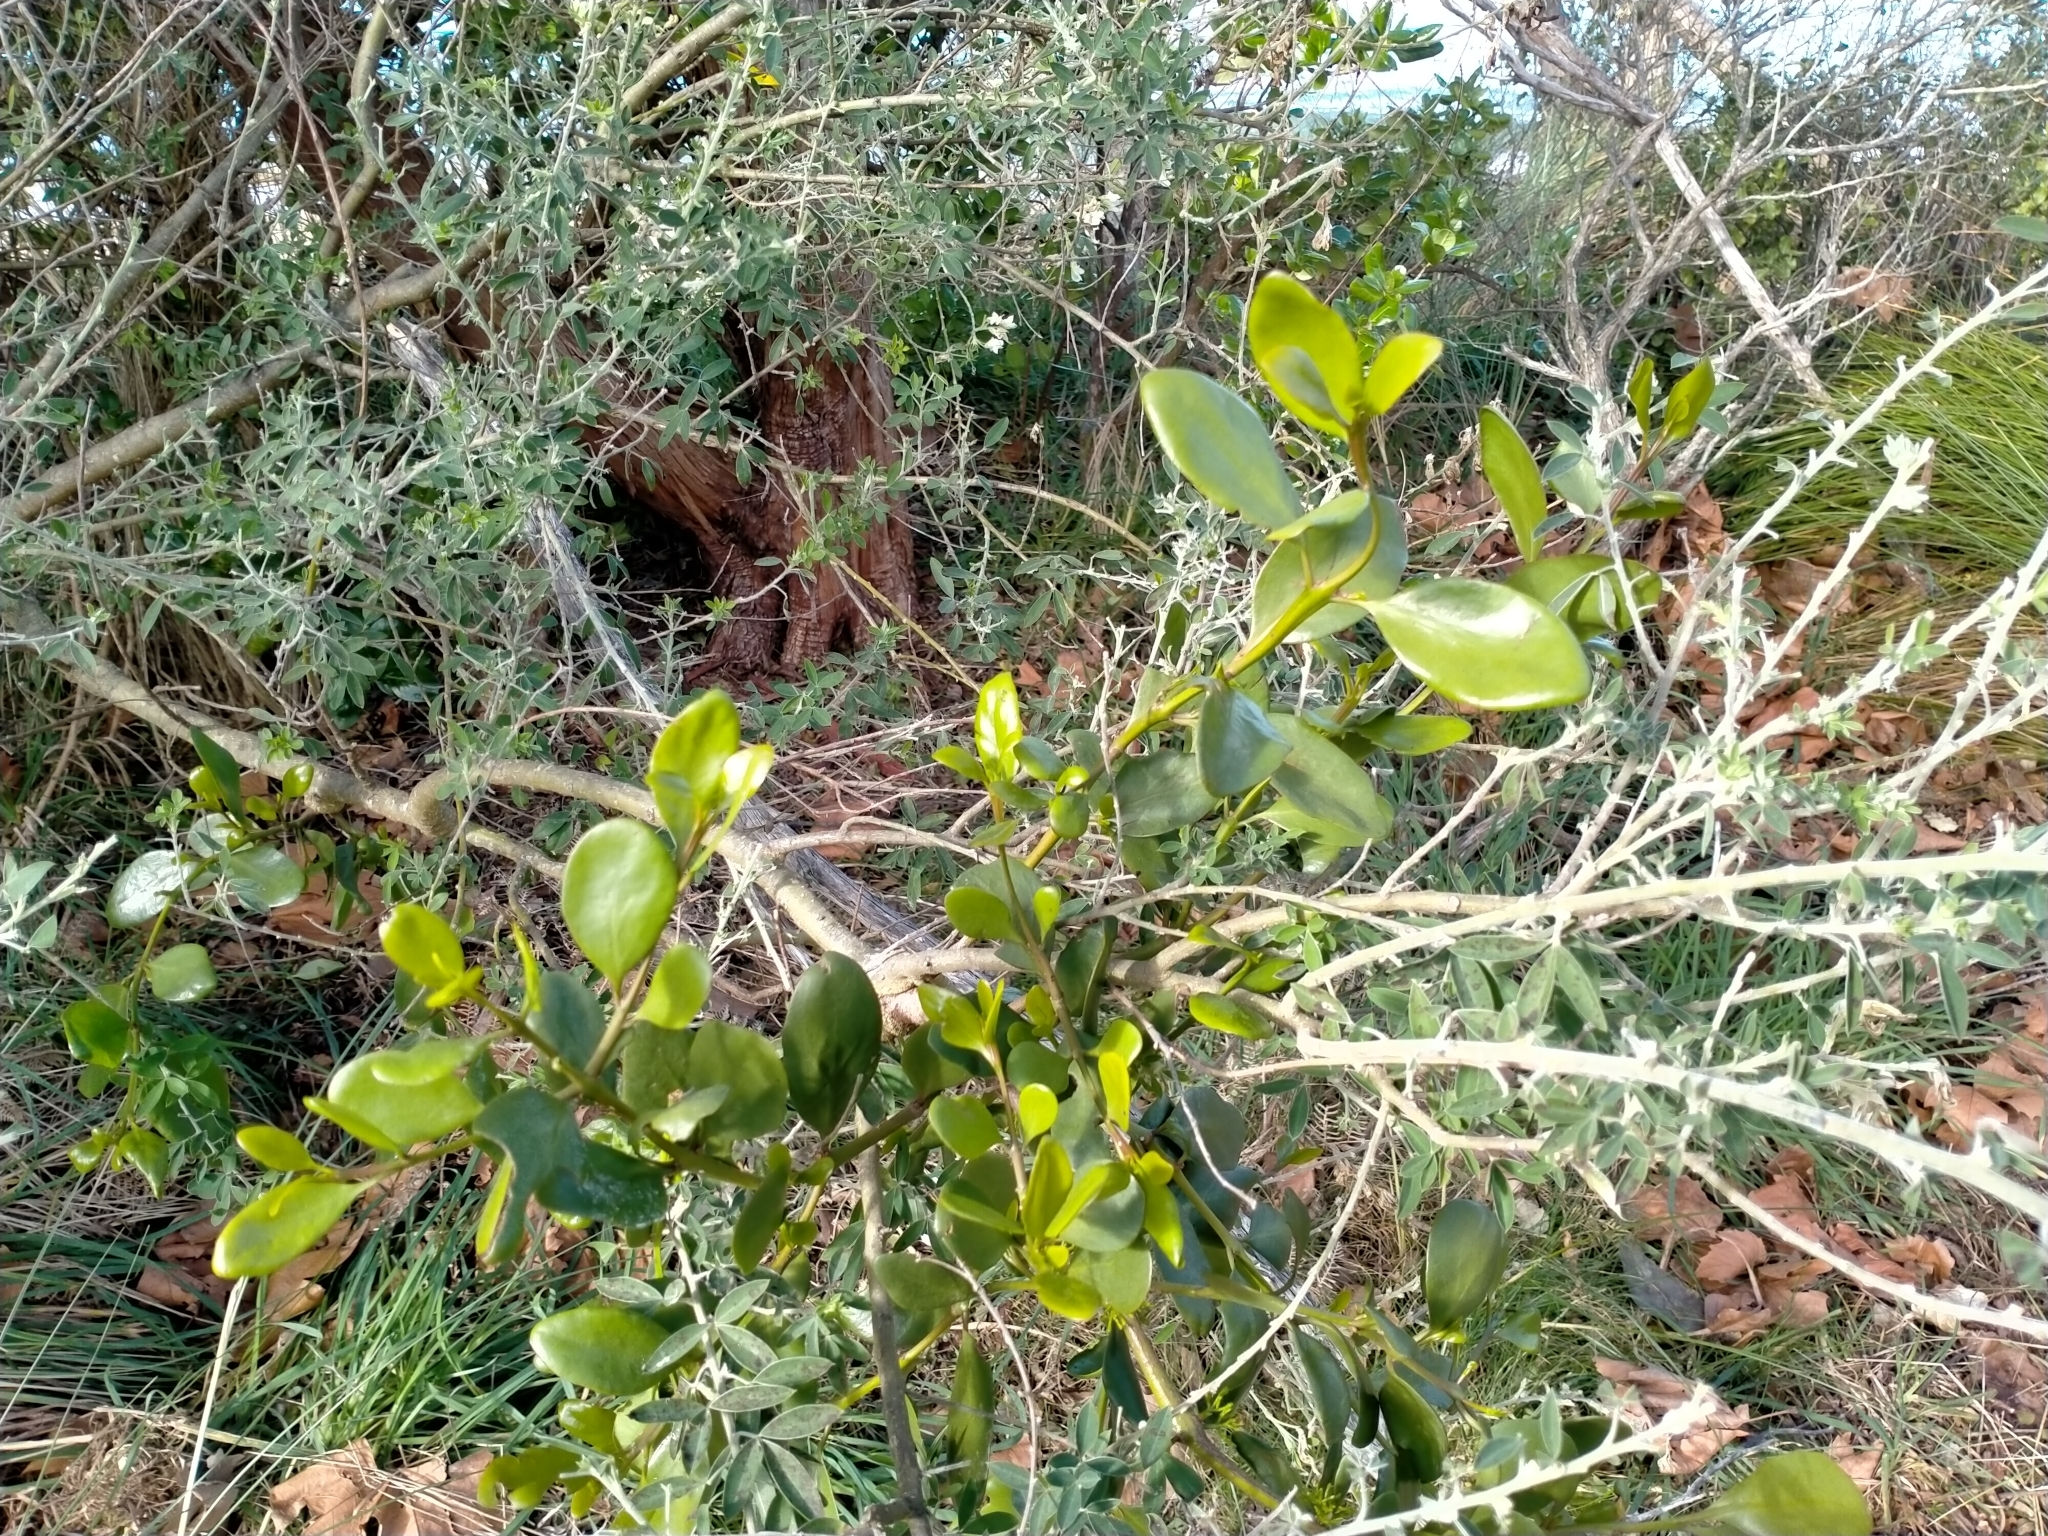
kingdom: Plantae
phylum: Tracheophyta
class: Magnoliopsida
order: Santalales
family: Loranthaceae
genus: Ileostylus
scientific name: Ileostylus micranthus
